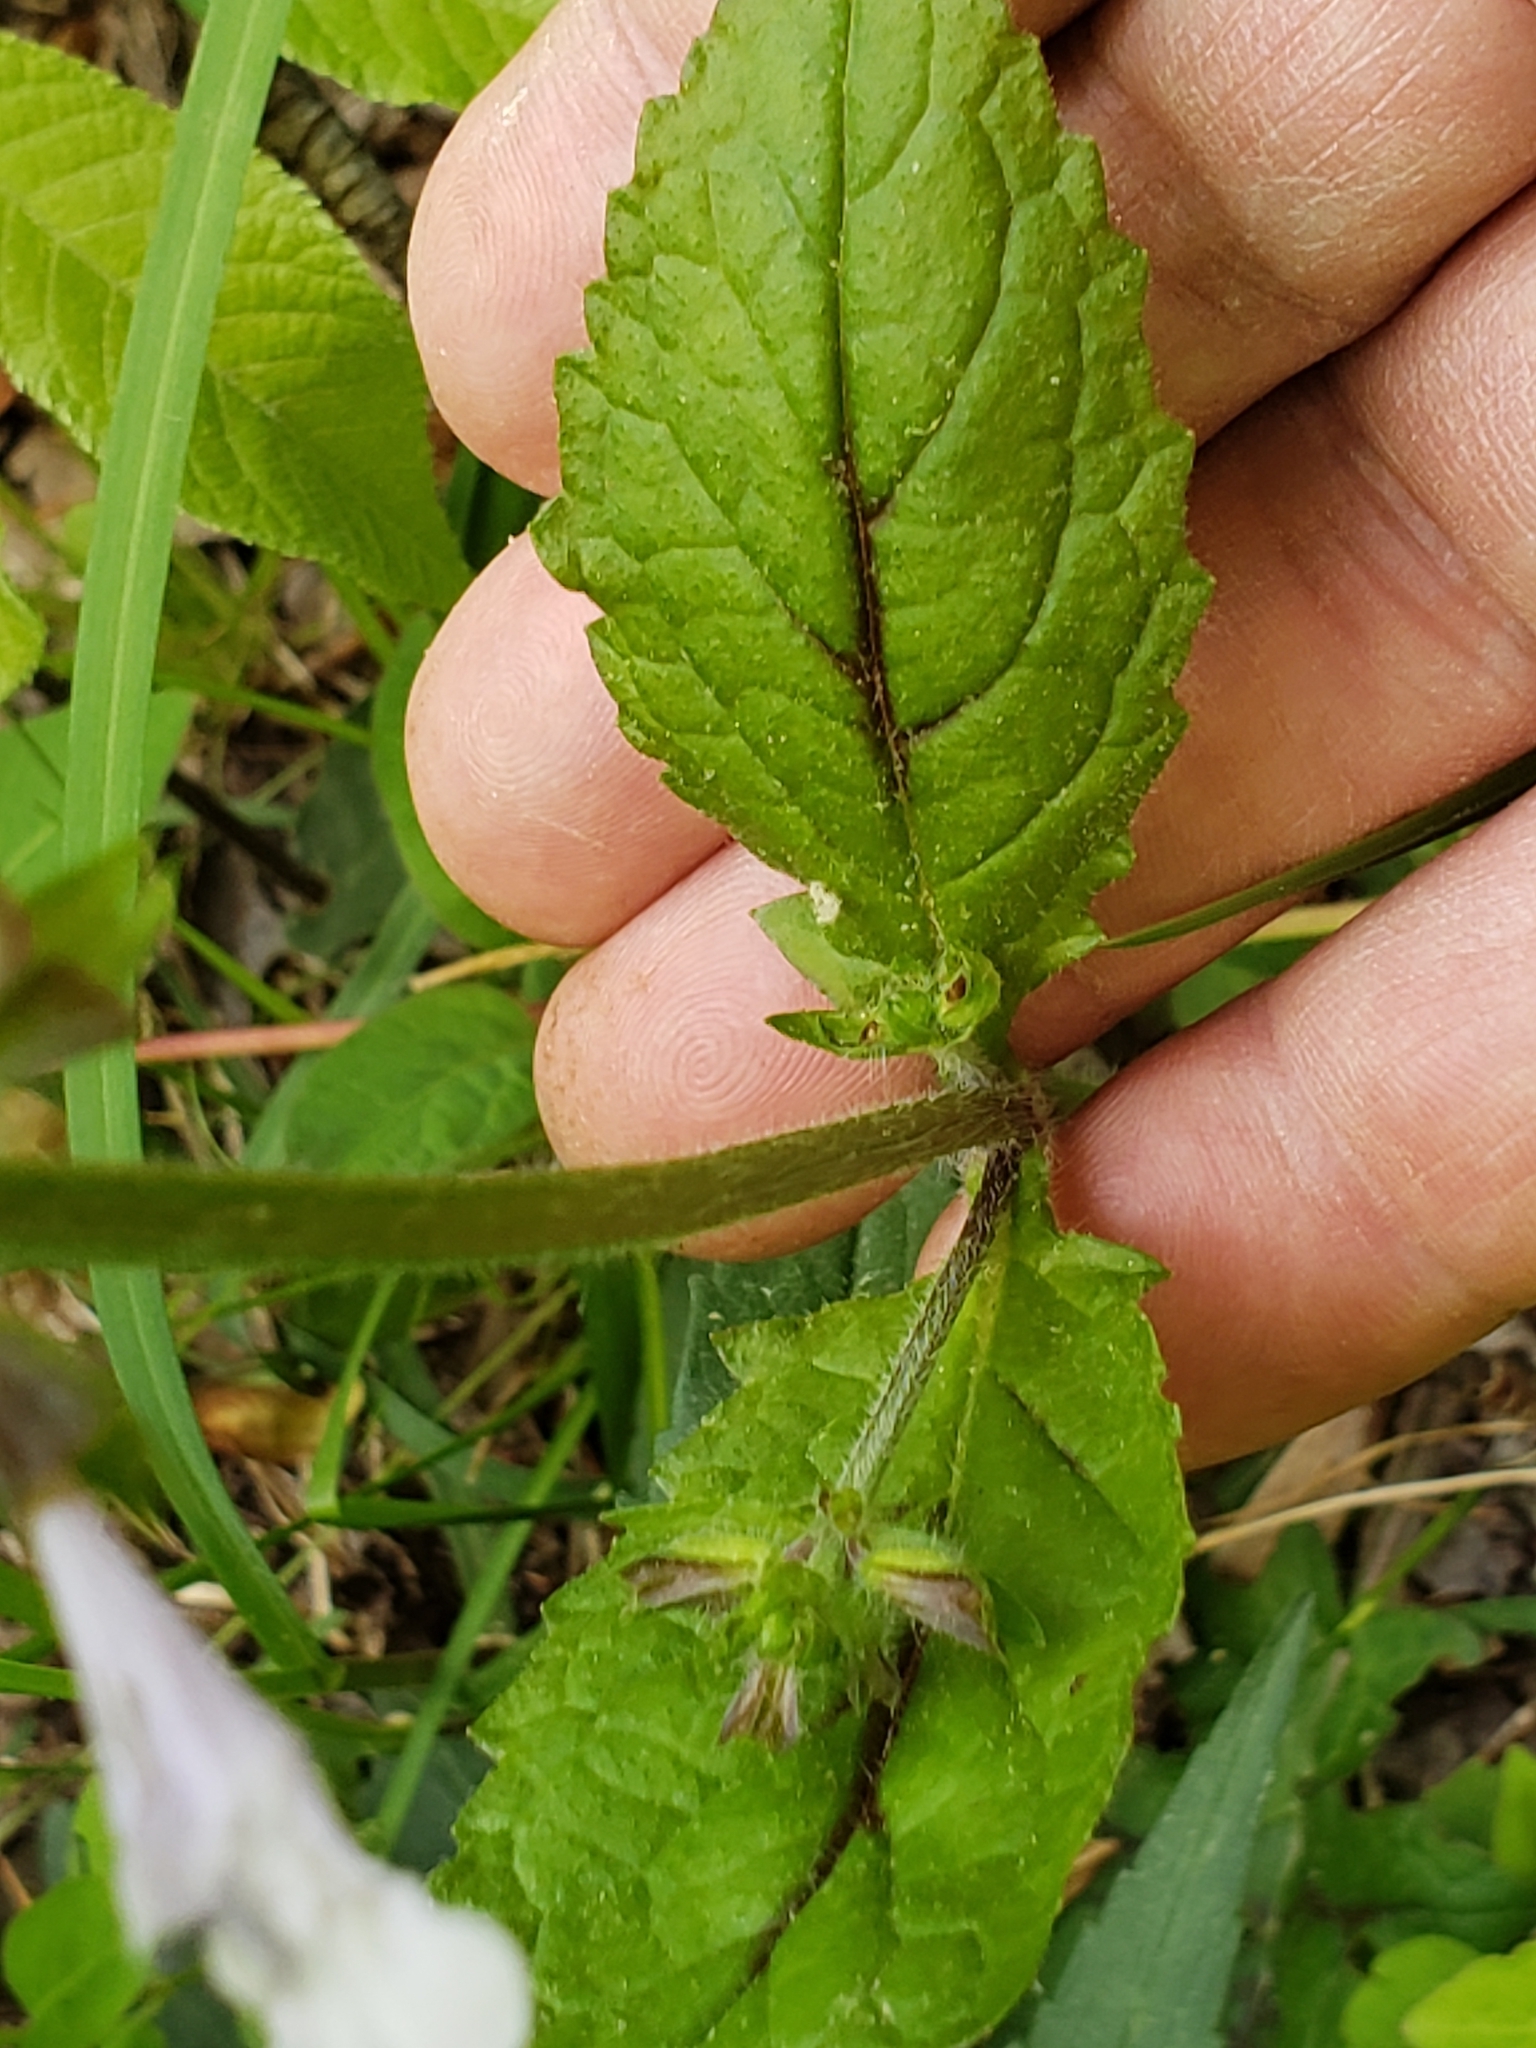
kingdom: Plantae
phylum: Tracheophyta
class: Magnoliopsida
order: Lamiales
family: Lamiaceae
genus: Salvia
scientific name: Salvia lyrata
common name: Cancerweed
